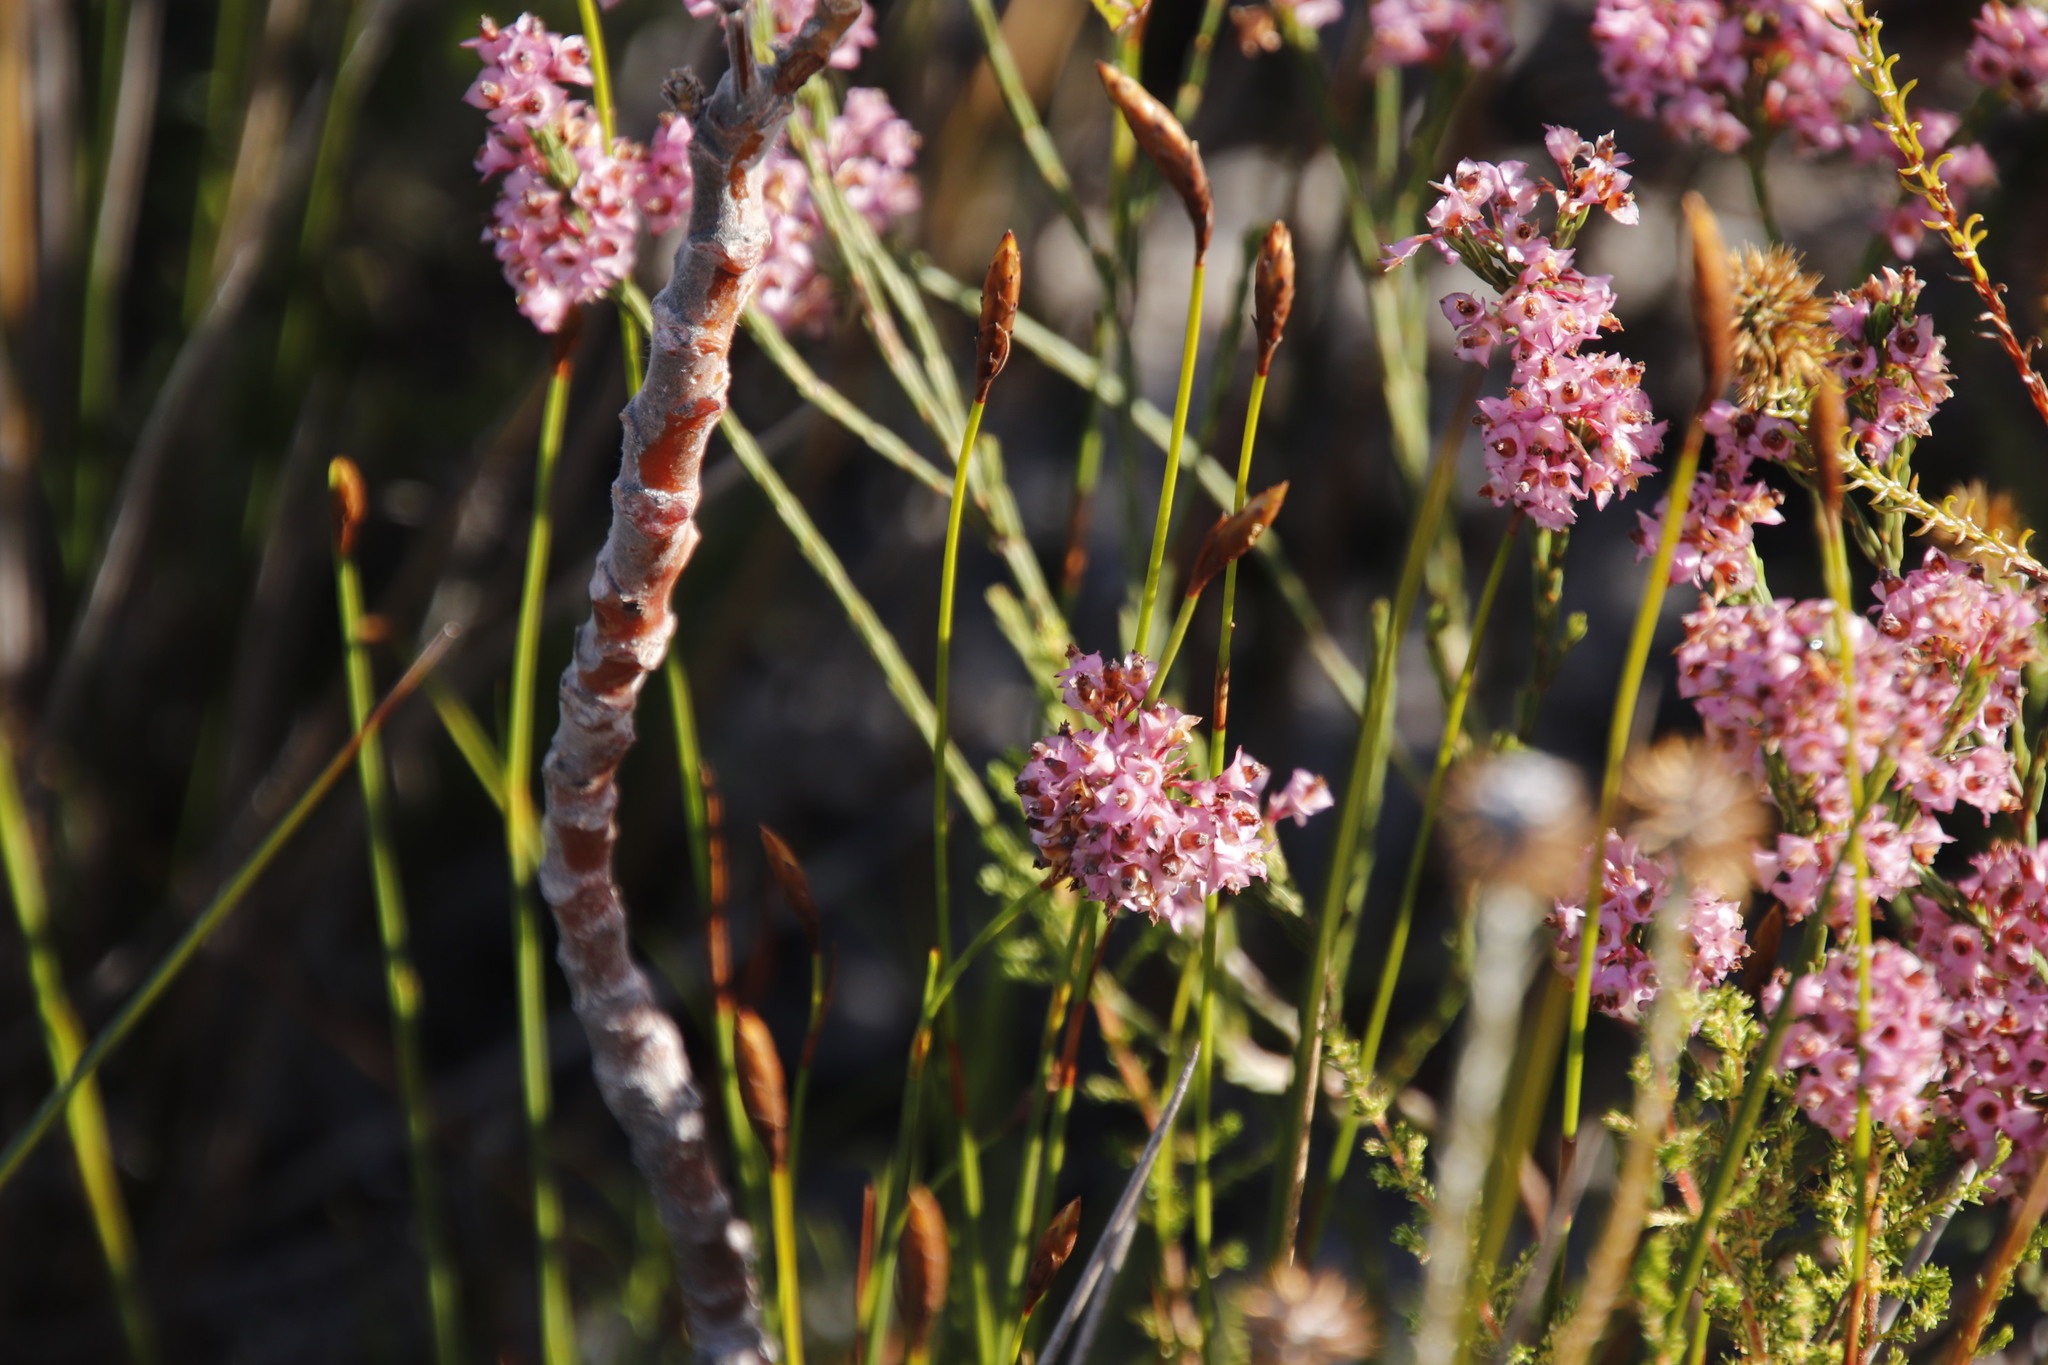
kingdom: Plantae
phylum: Tracheophyta
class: Magnoliopsida
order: Ericales
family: Ericaceae
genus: Erica
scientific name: Erica corifolia
